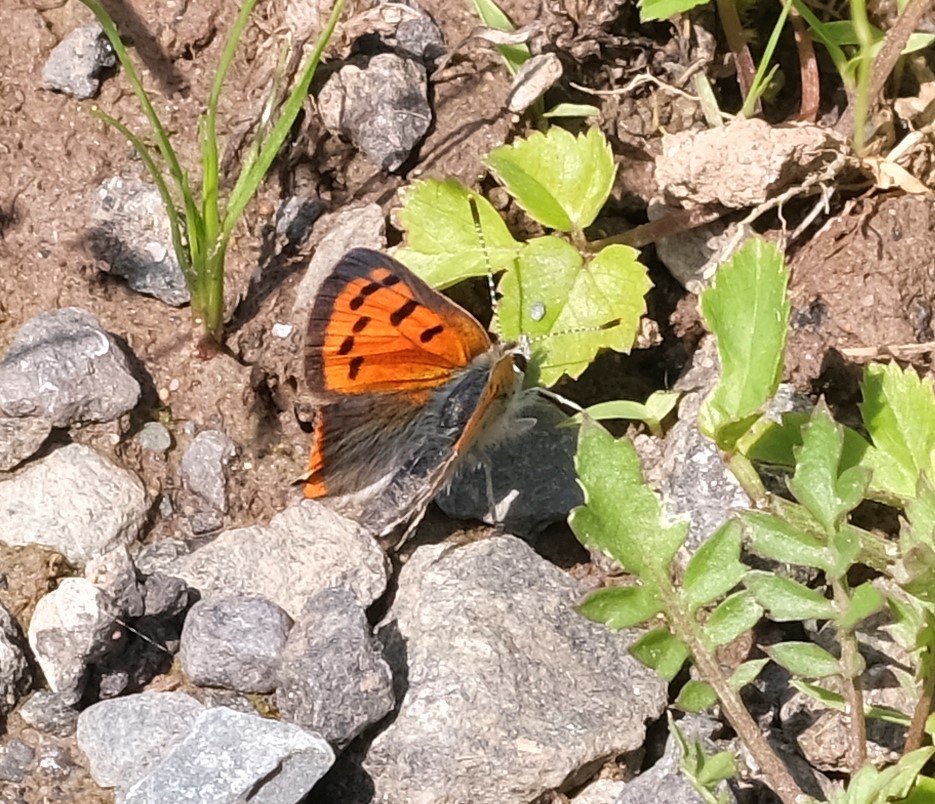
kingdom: Animalia
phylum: Arthropoda
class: Insecta
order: Lepidoptera
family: Lycaenidae
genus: Lycaena
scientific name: Lycaena hypophlaeas
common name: American copper
